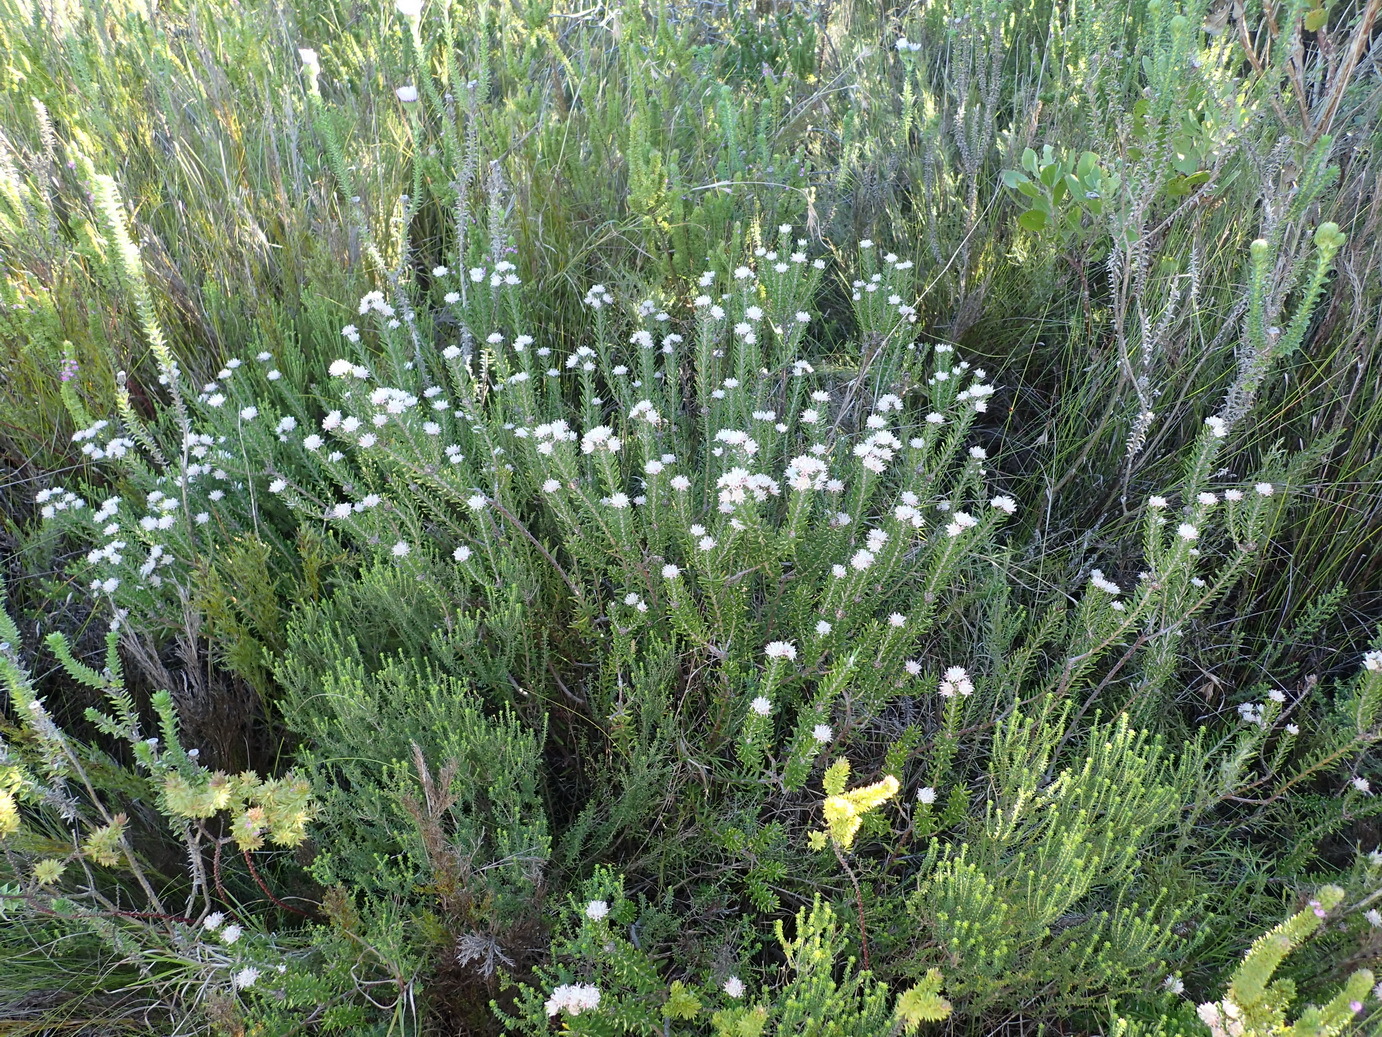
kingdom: Plantae
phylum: Tracheophyta
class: Magnoliopsida
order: Rosales
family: Rhamnaceae
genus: Trichocephalus
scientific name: Trichocephalus stipularis
